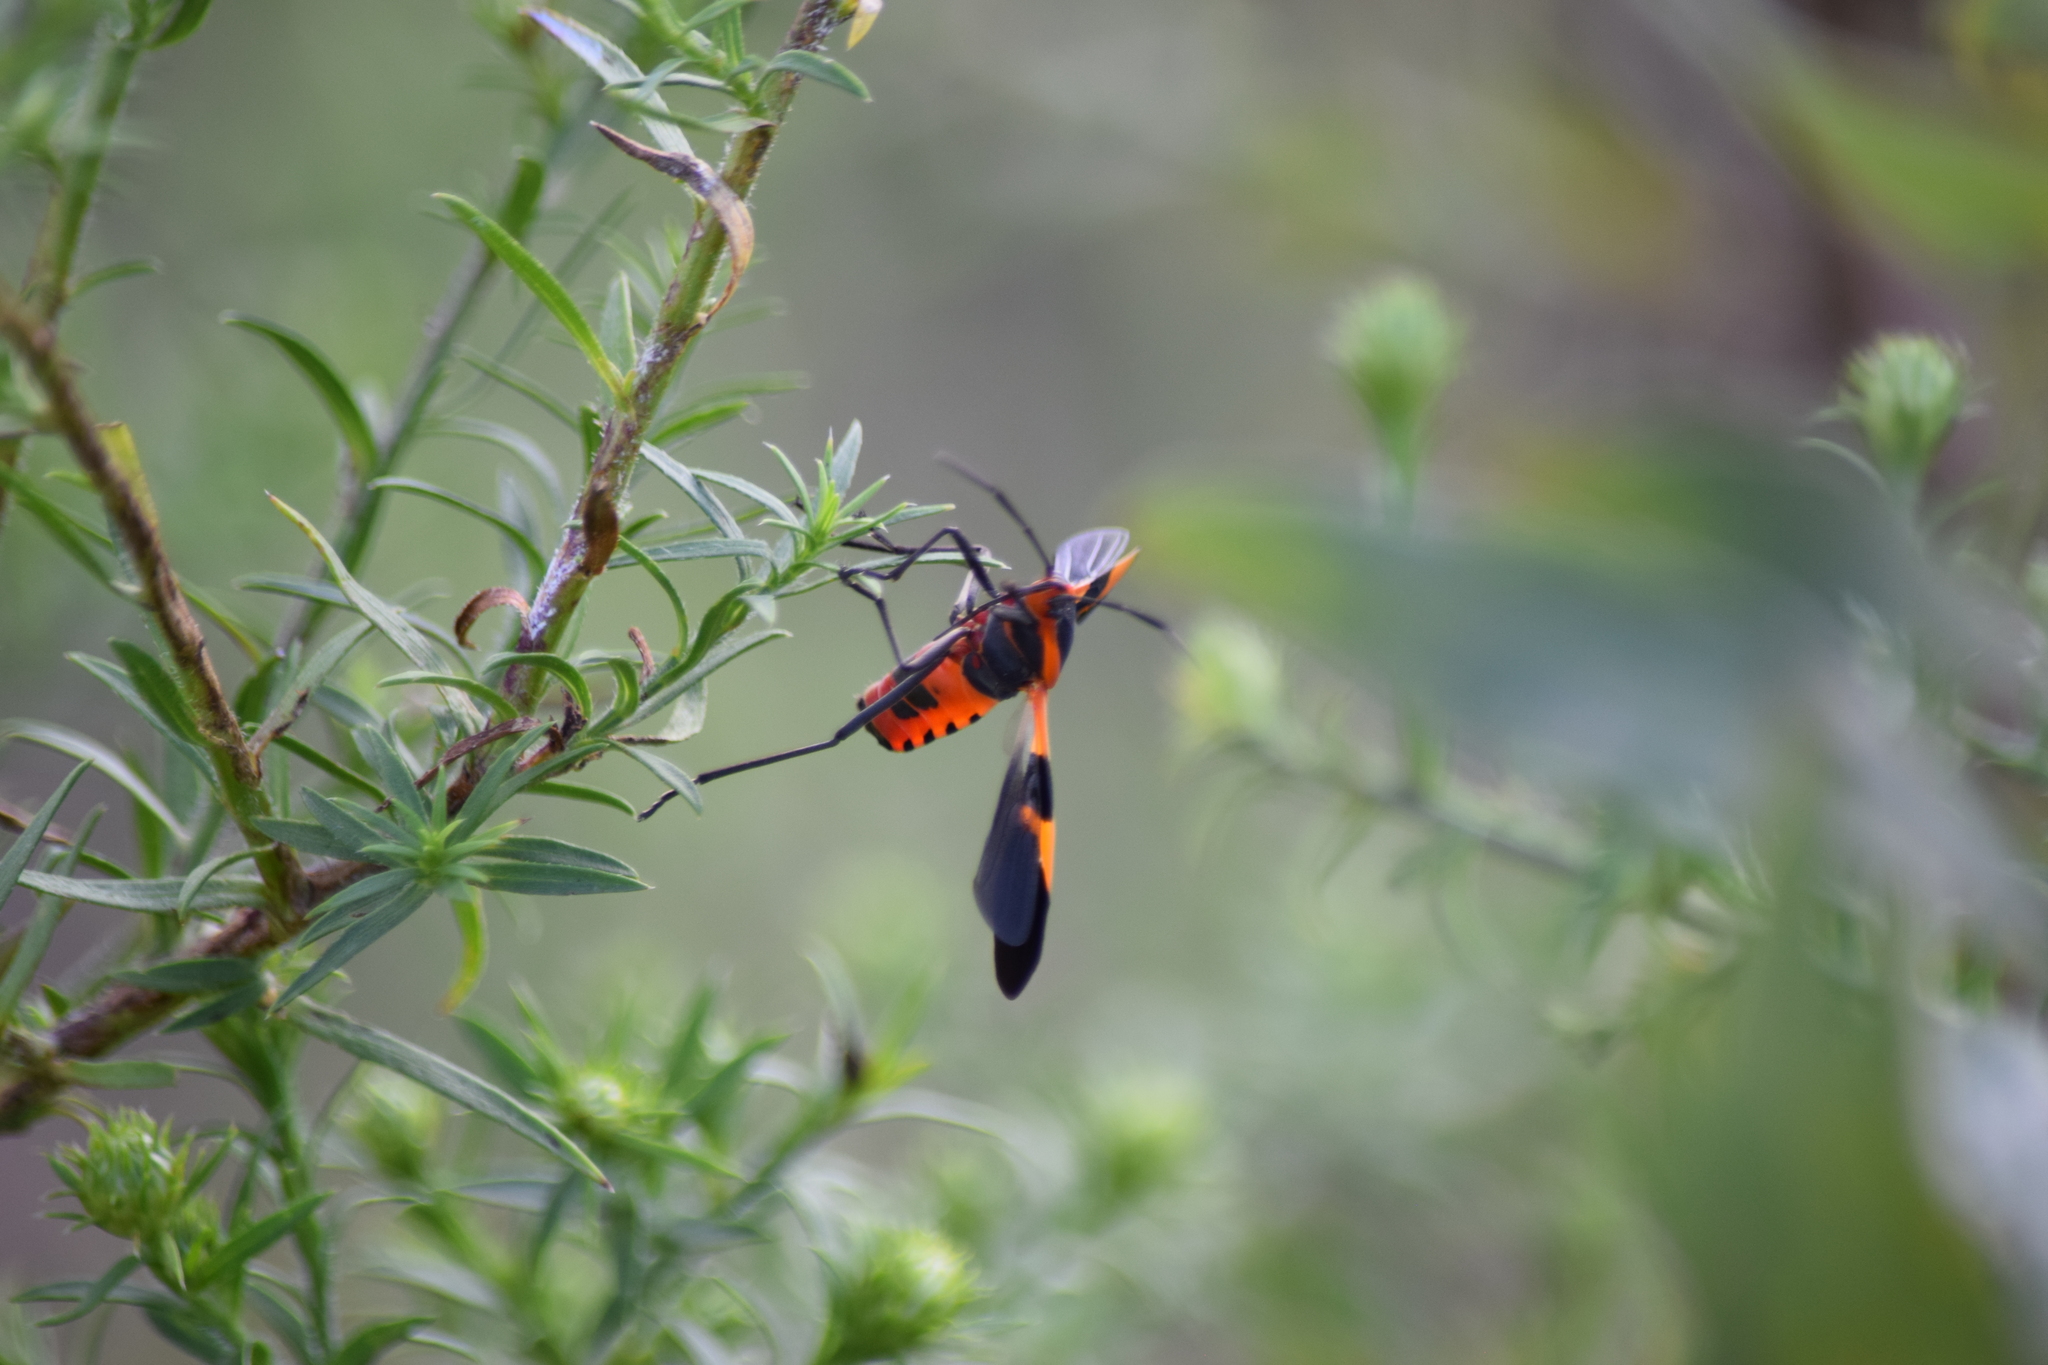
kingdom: Animalia
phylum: Arthropoda
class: Insecta
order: Hemiptera
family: Lygaeidae
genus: Oncopeltus
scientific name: Oncopeltus fasciatus
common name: Large milkweed bug
